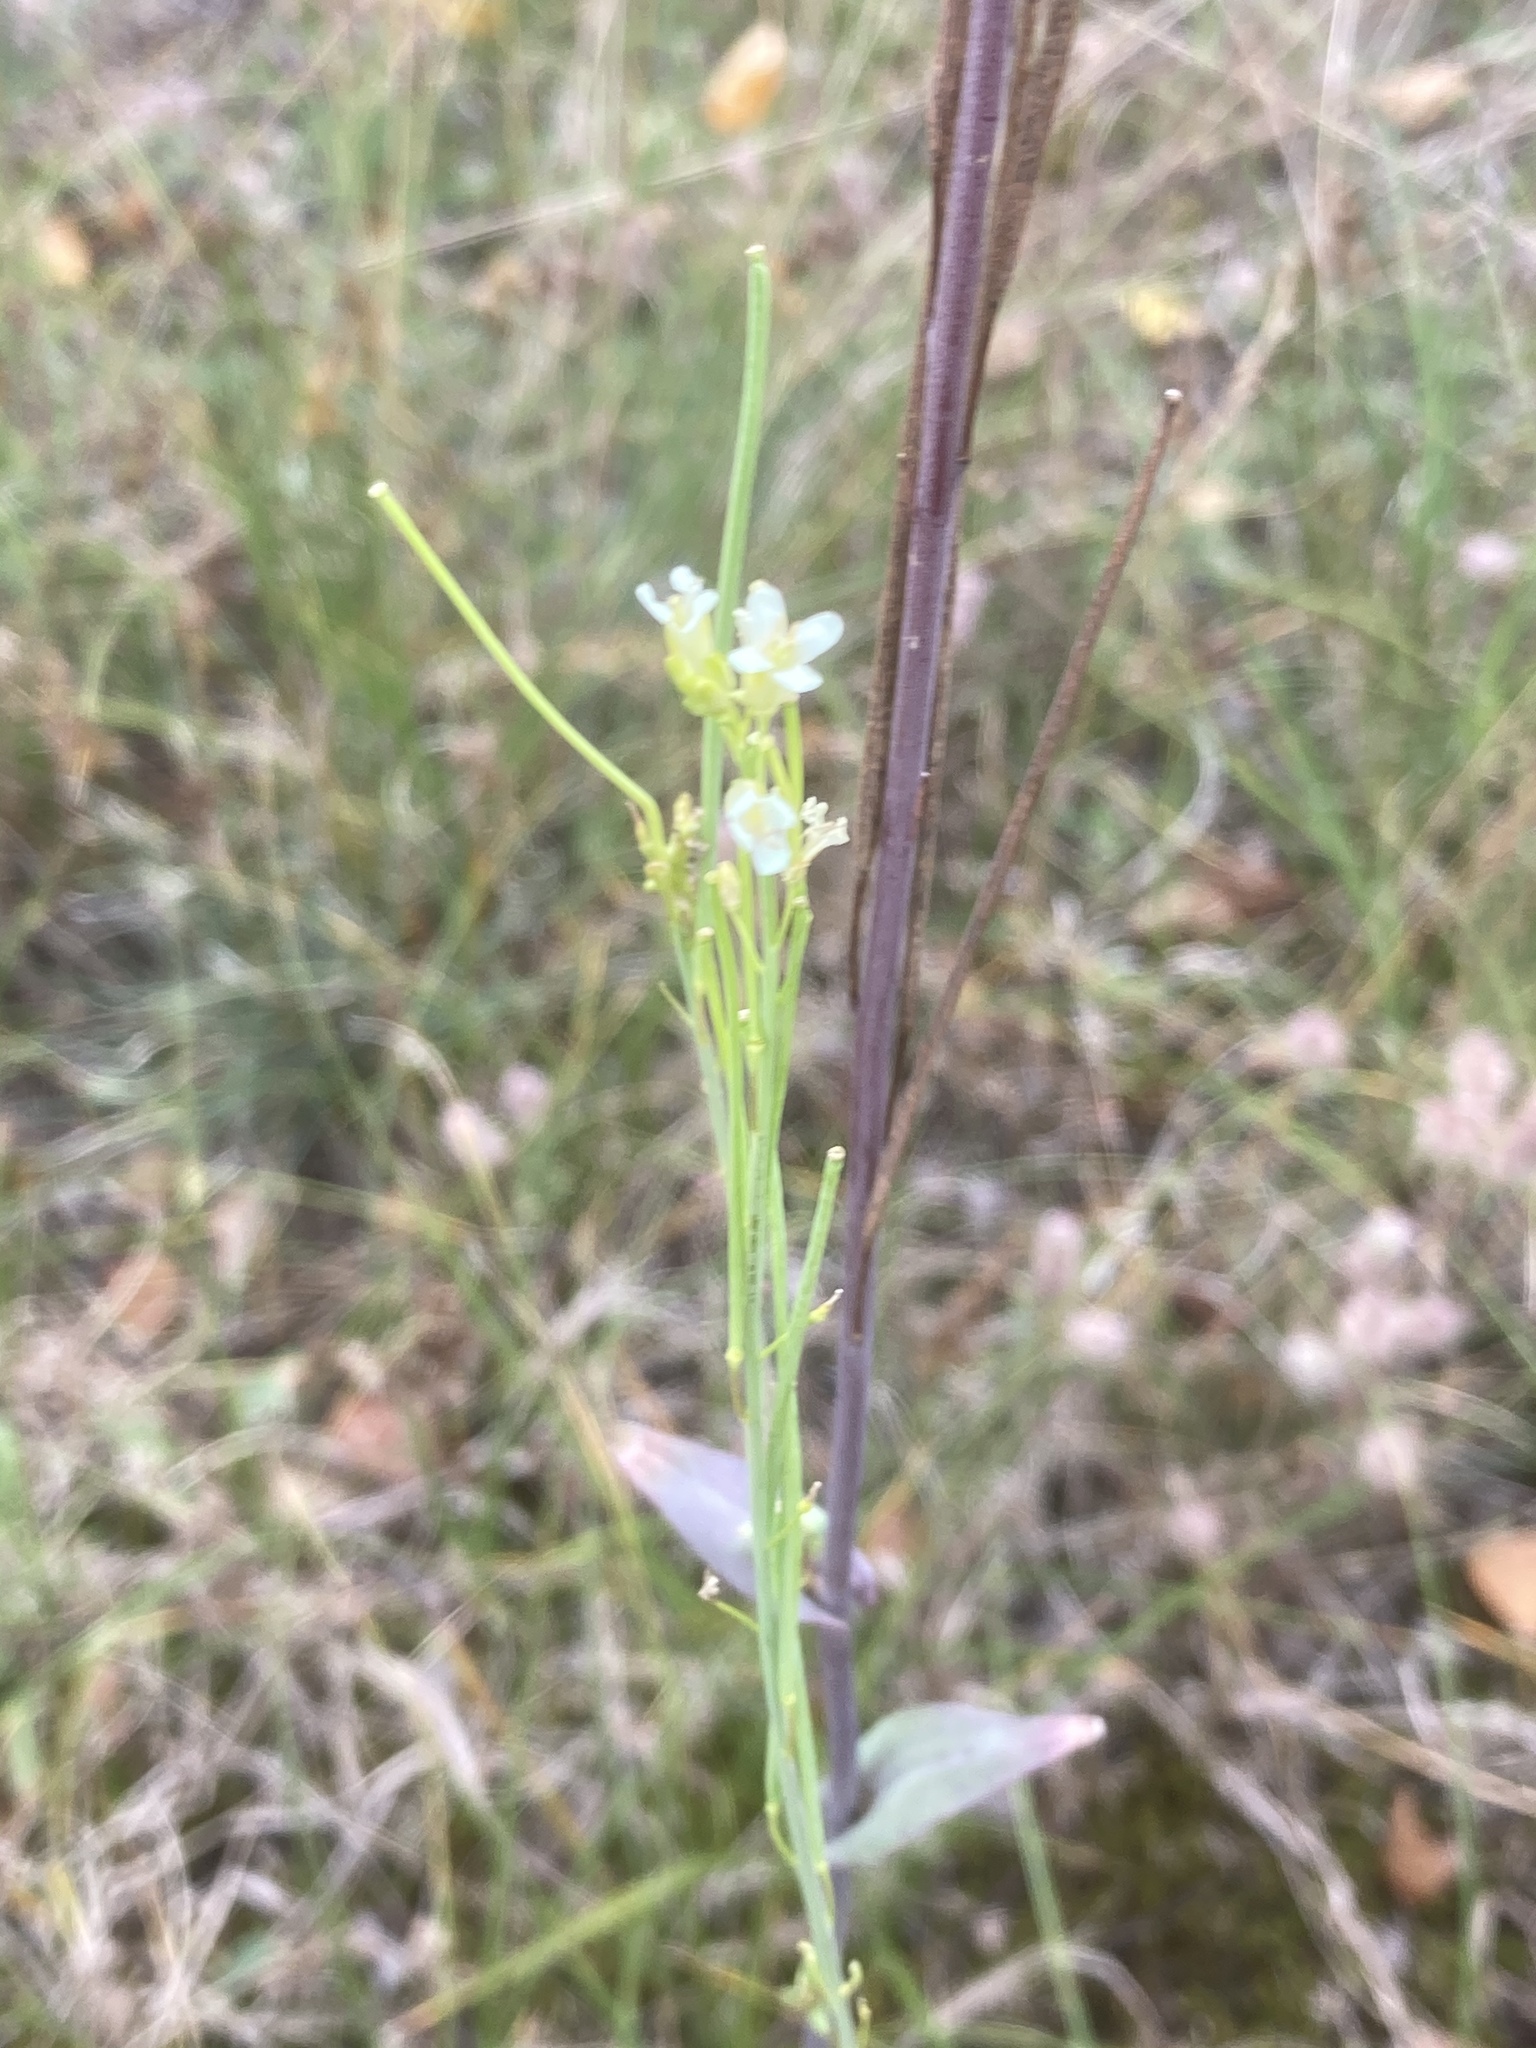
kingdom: Plantae
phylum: Tracheophyta
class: Magnoliopsida
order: Brassicales
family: Brassicaceae
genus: Turritis
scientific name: Turritis glabra
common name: Tower rockcress
